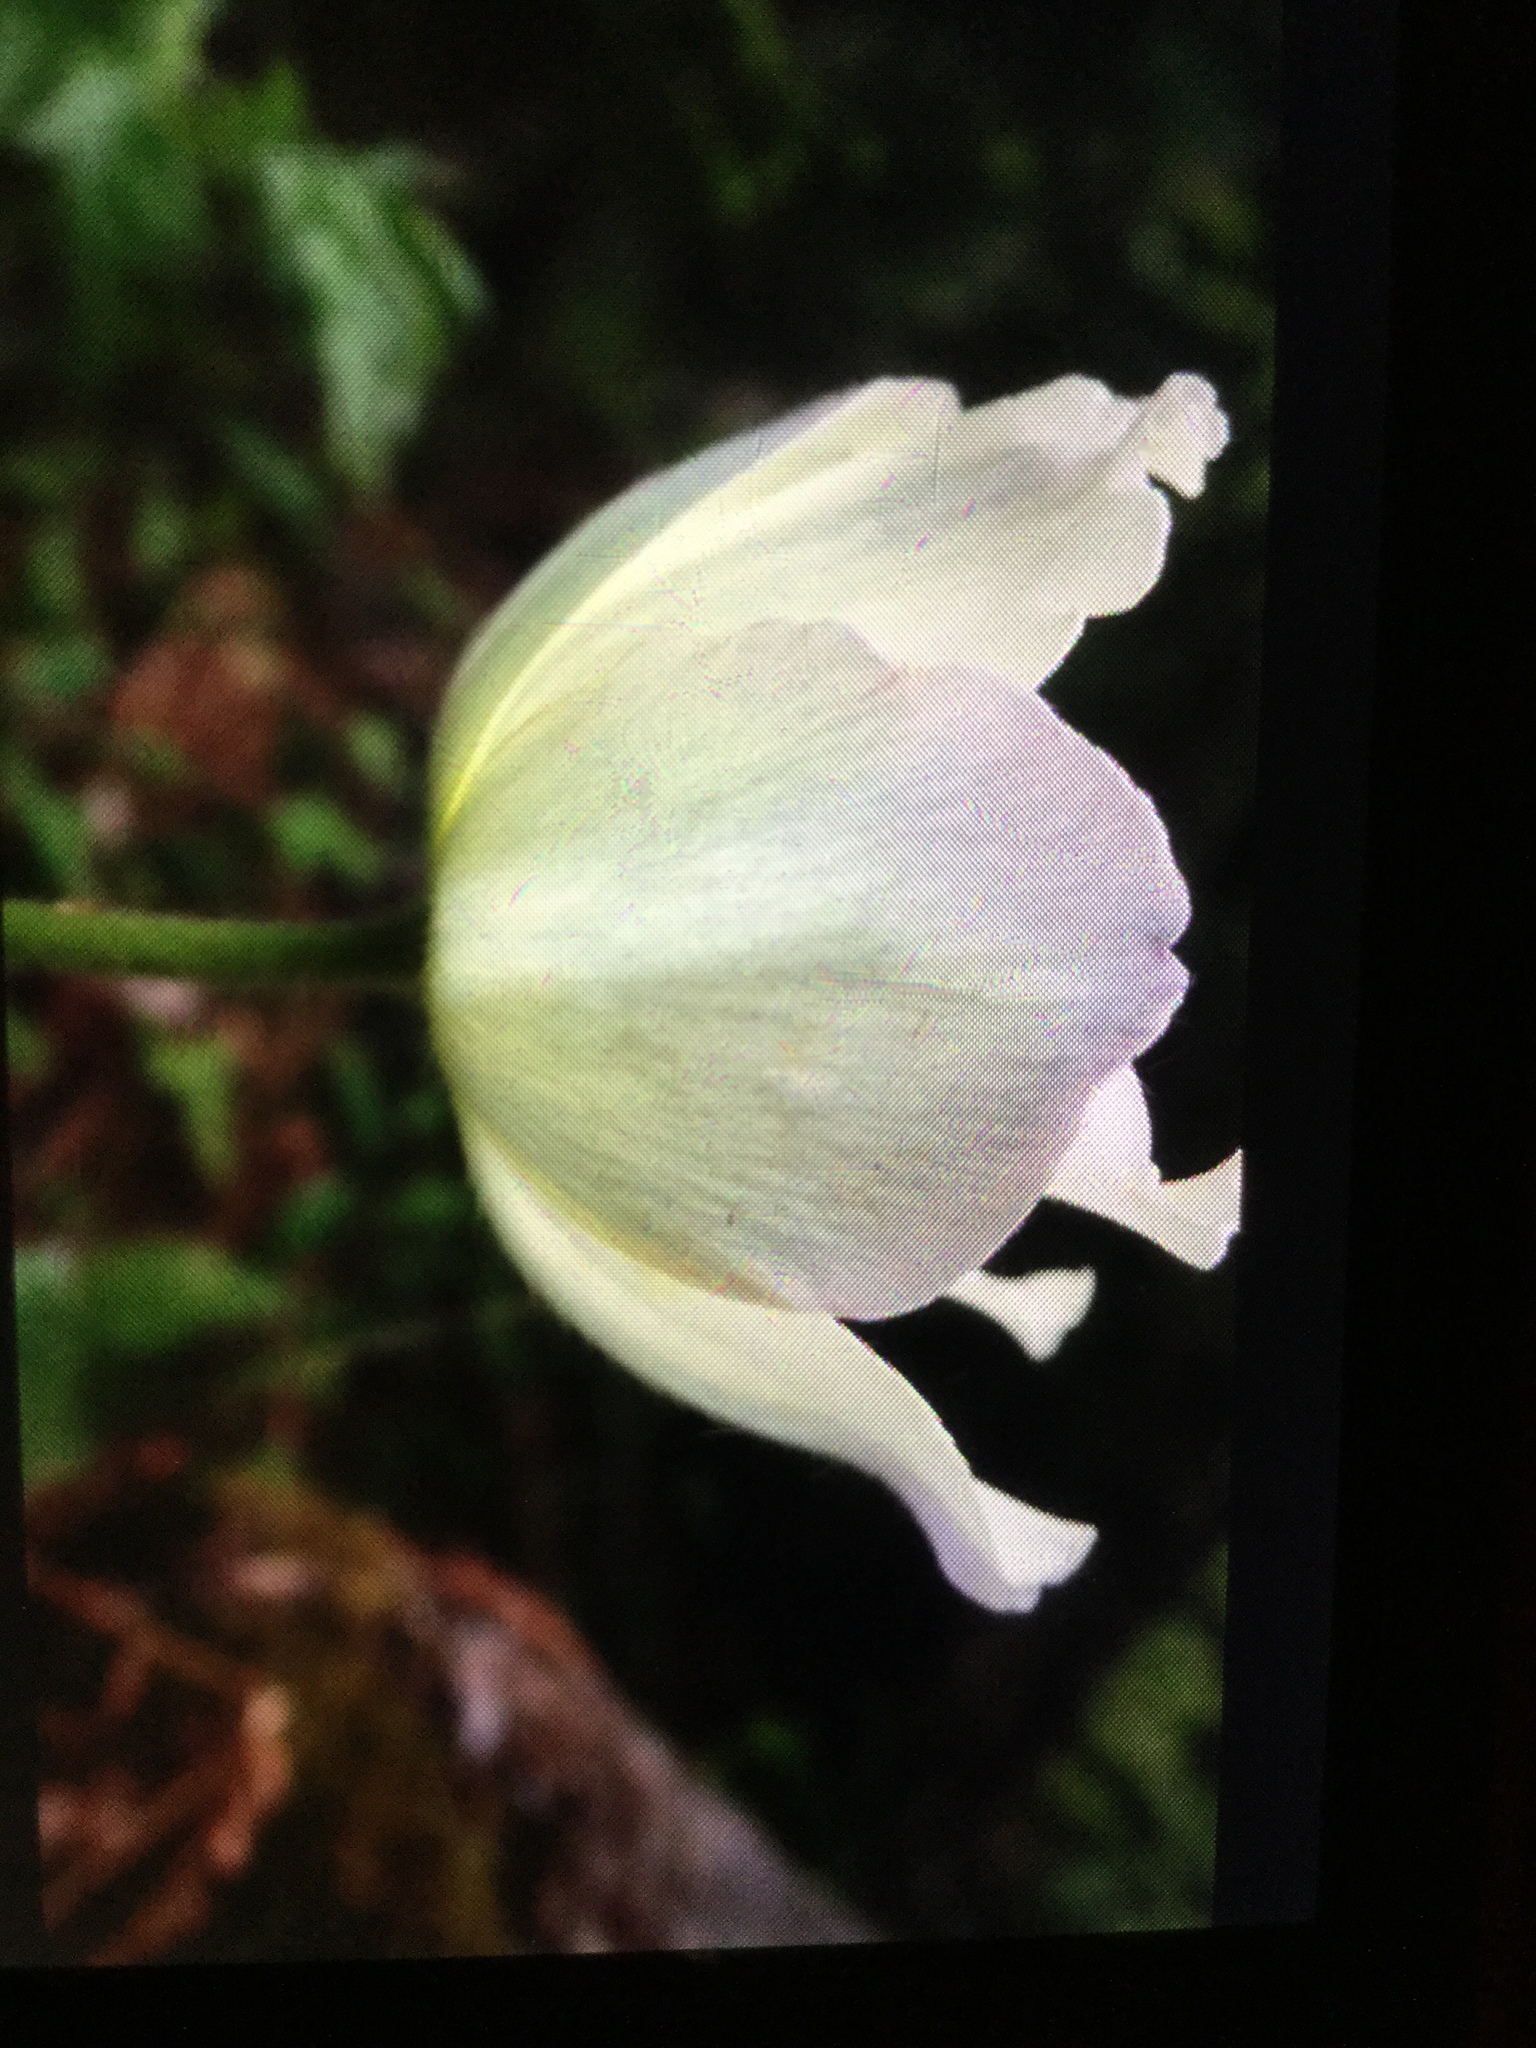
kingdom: Plantae
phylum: Tracheophyta
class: Magnoliopsida
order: Ranunculales
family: Ranunculaceae
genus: Pulsatilla
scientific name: Pulsatilla alpina
